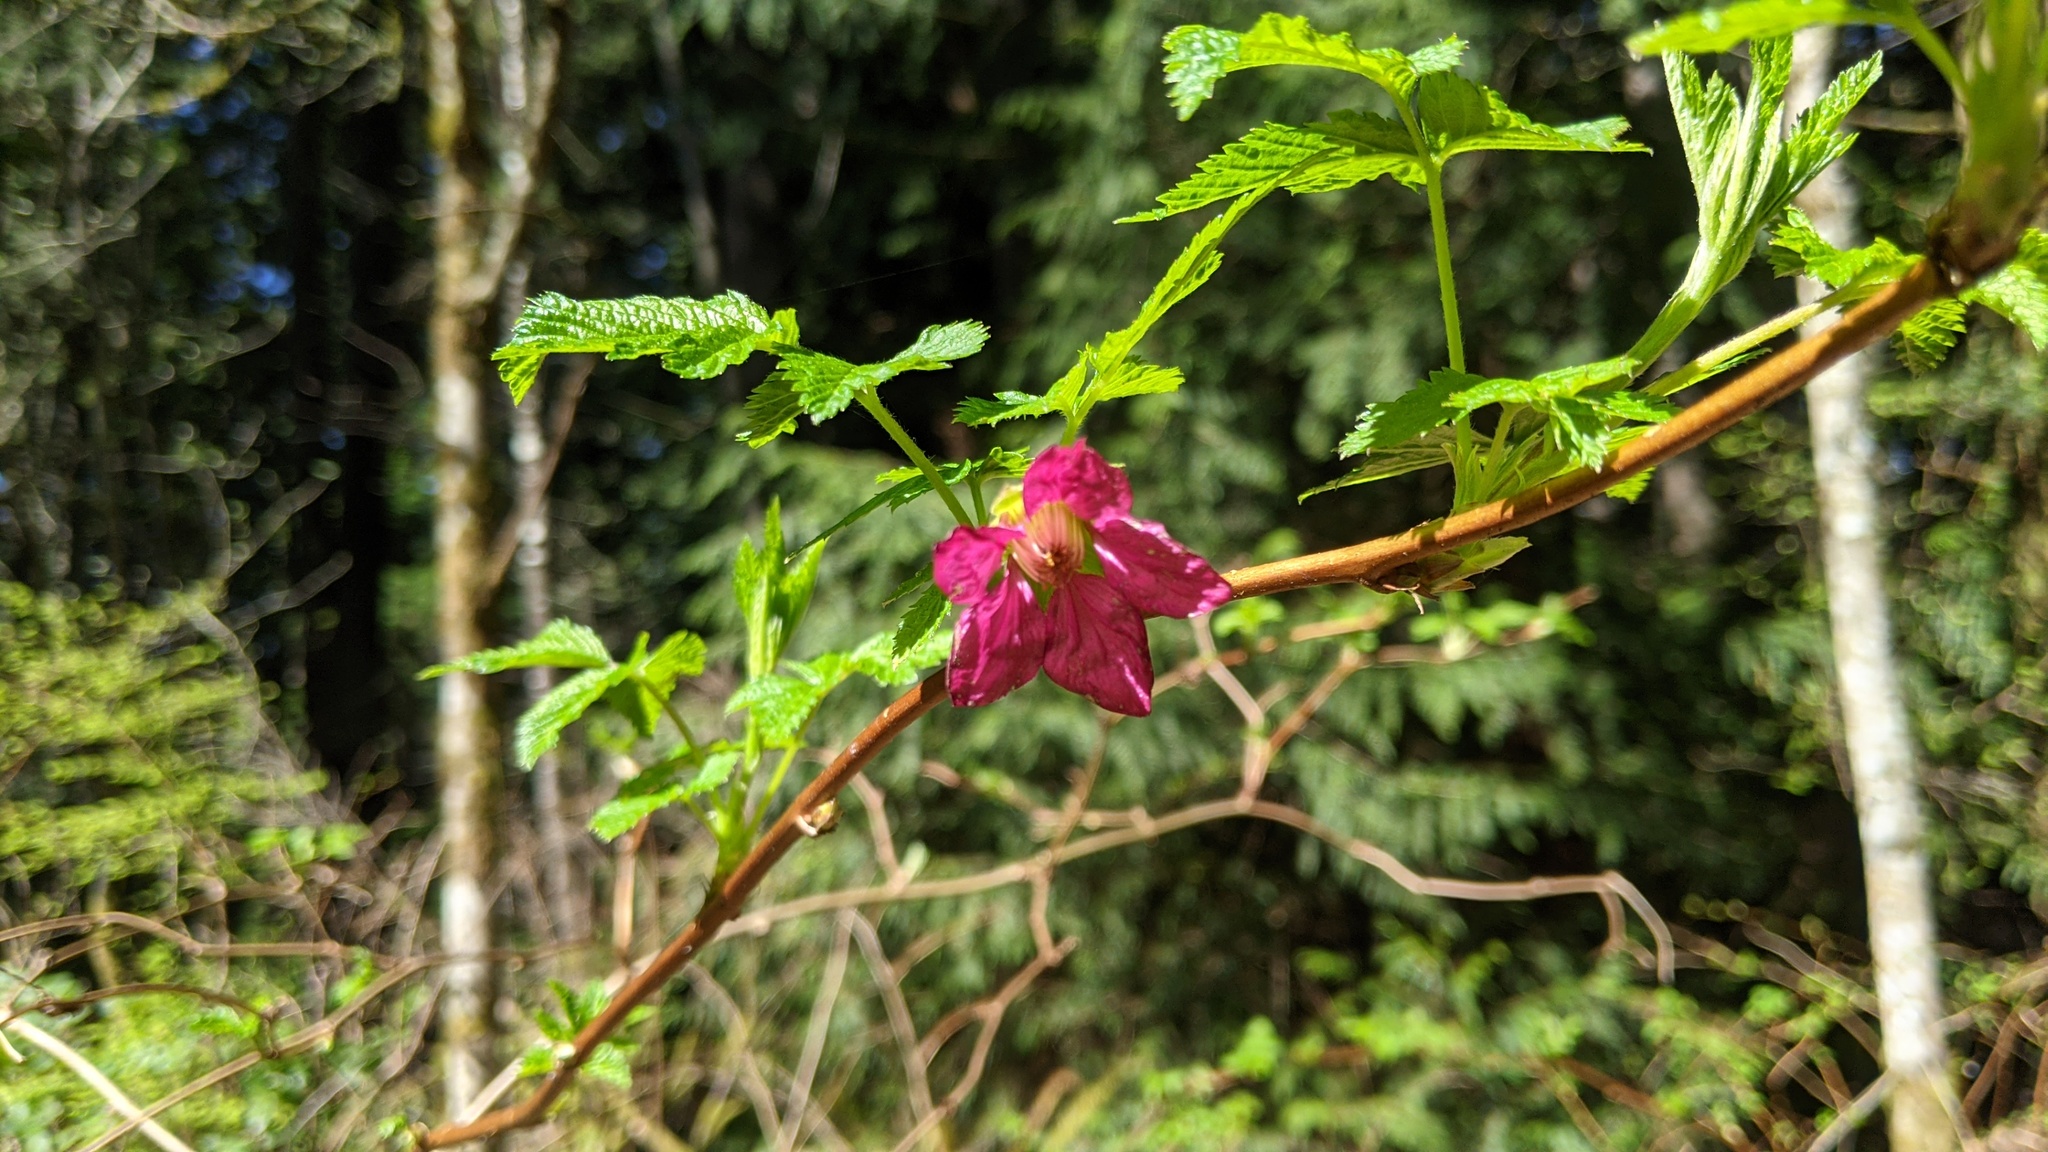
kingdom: Plantae
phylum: Tracheophyta
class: Magnoliopsida
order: Rosales
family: Rosaceae
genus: Rubus
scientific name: Rubus spectabilis
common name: Salmonberry
